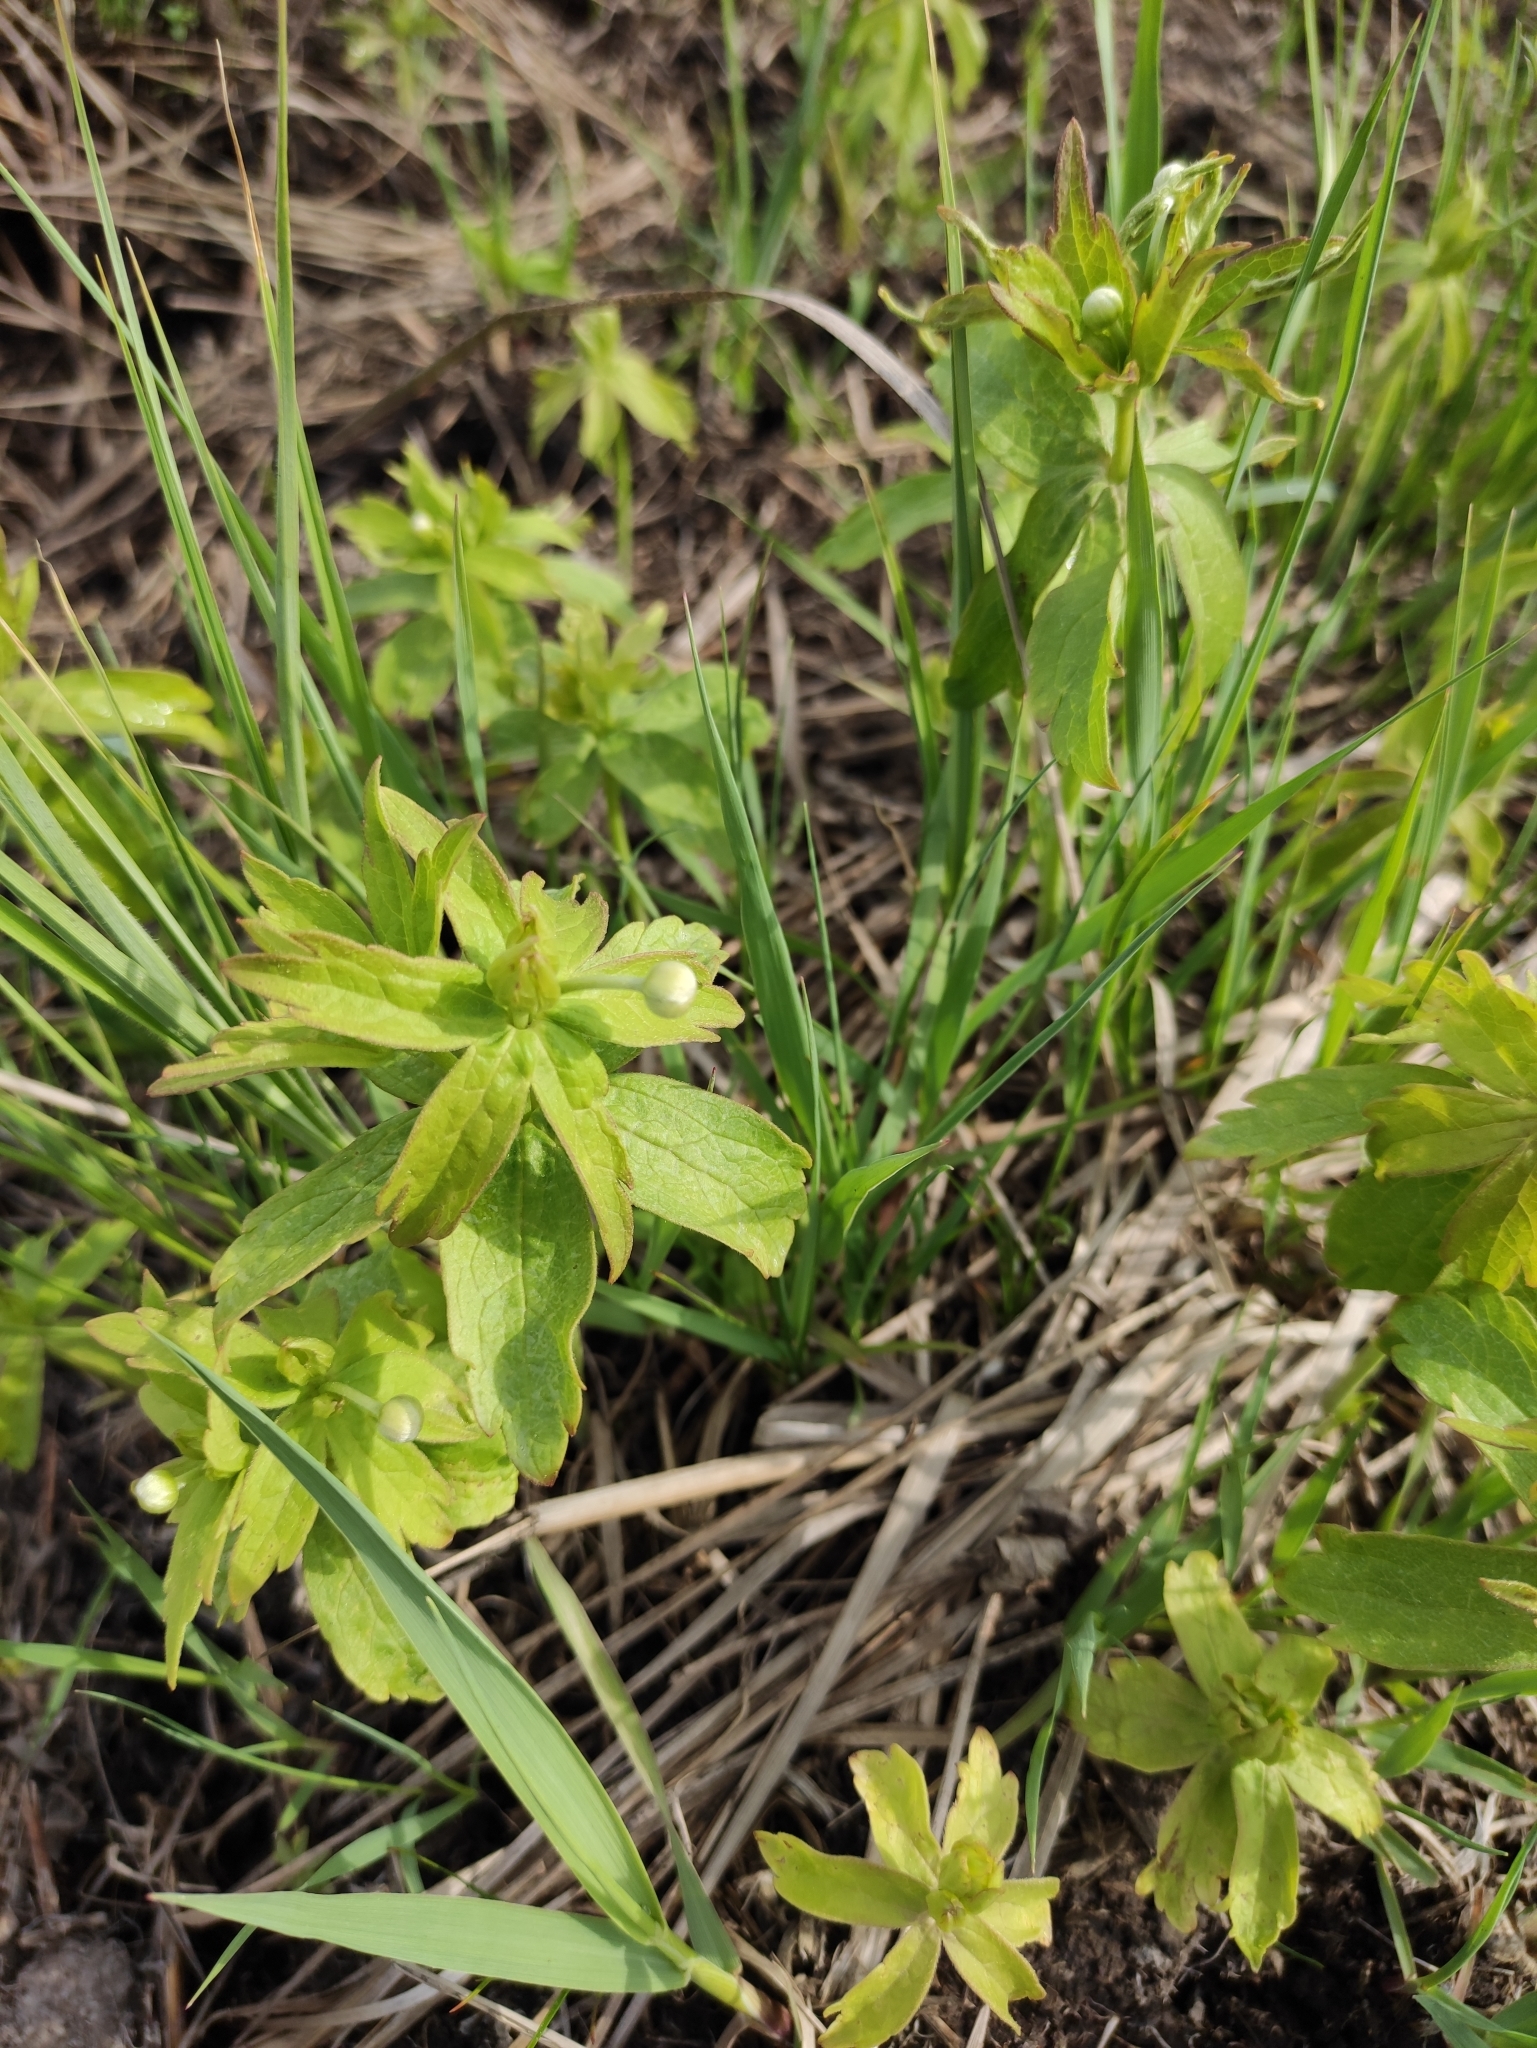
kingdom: Plantae
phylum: Tracheophyta
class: Magnoliopsida
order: Ranunculales
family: Ranunculaceae
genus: Anemonastrum
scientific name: Anemonastrum dichotomum
